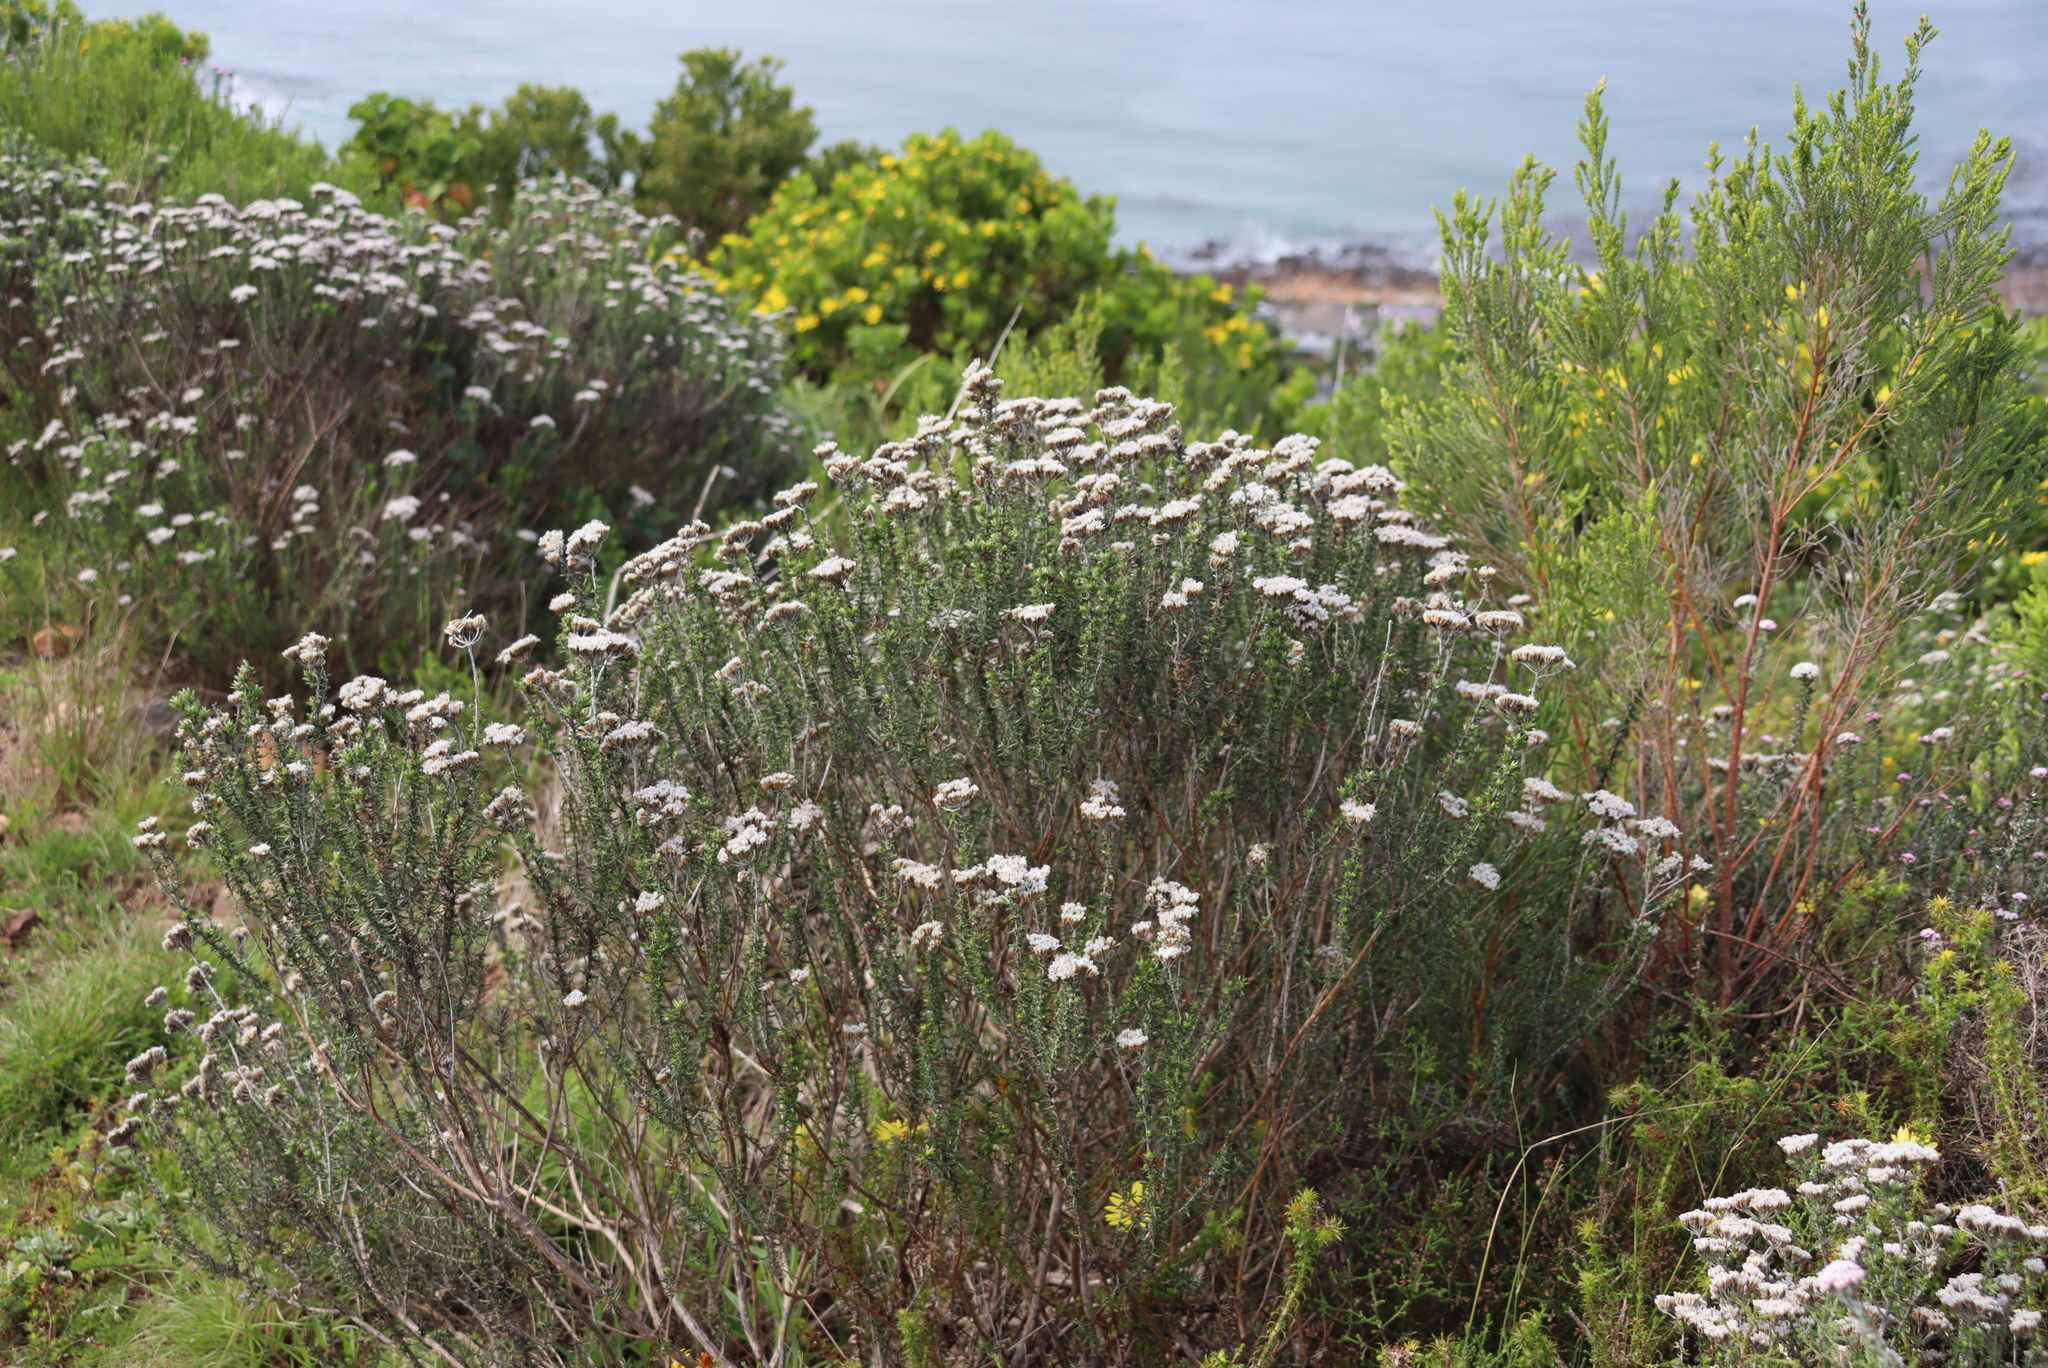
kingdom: Plantae
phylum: Tracheophyta
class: Magnoliopsida
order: Asterales
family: Asteraceae
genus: Metalasia
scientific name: Metalasia densa
